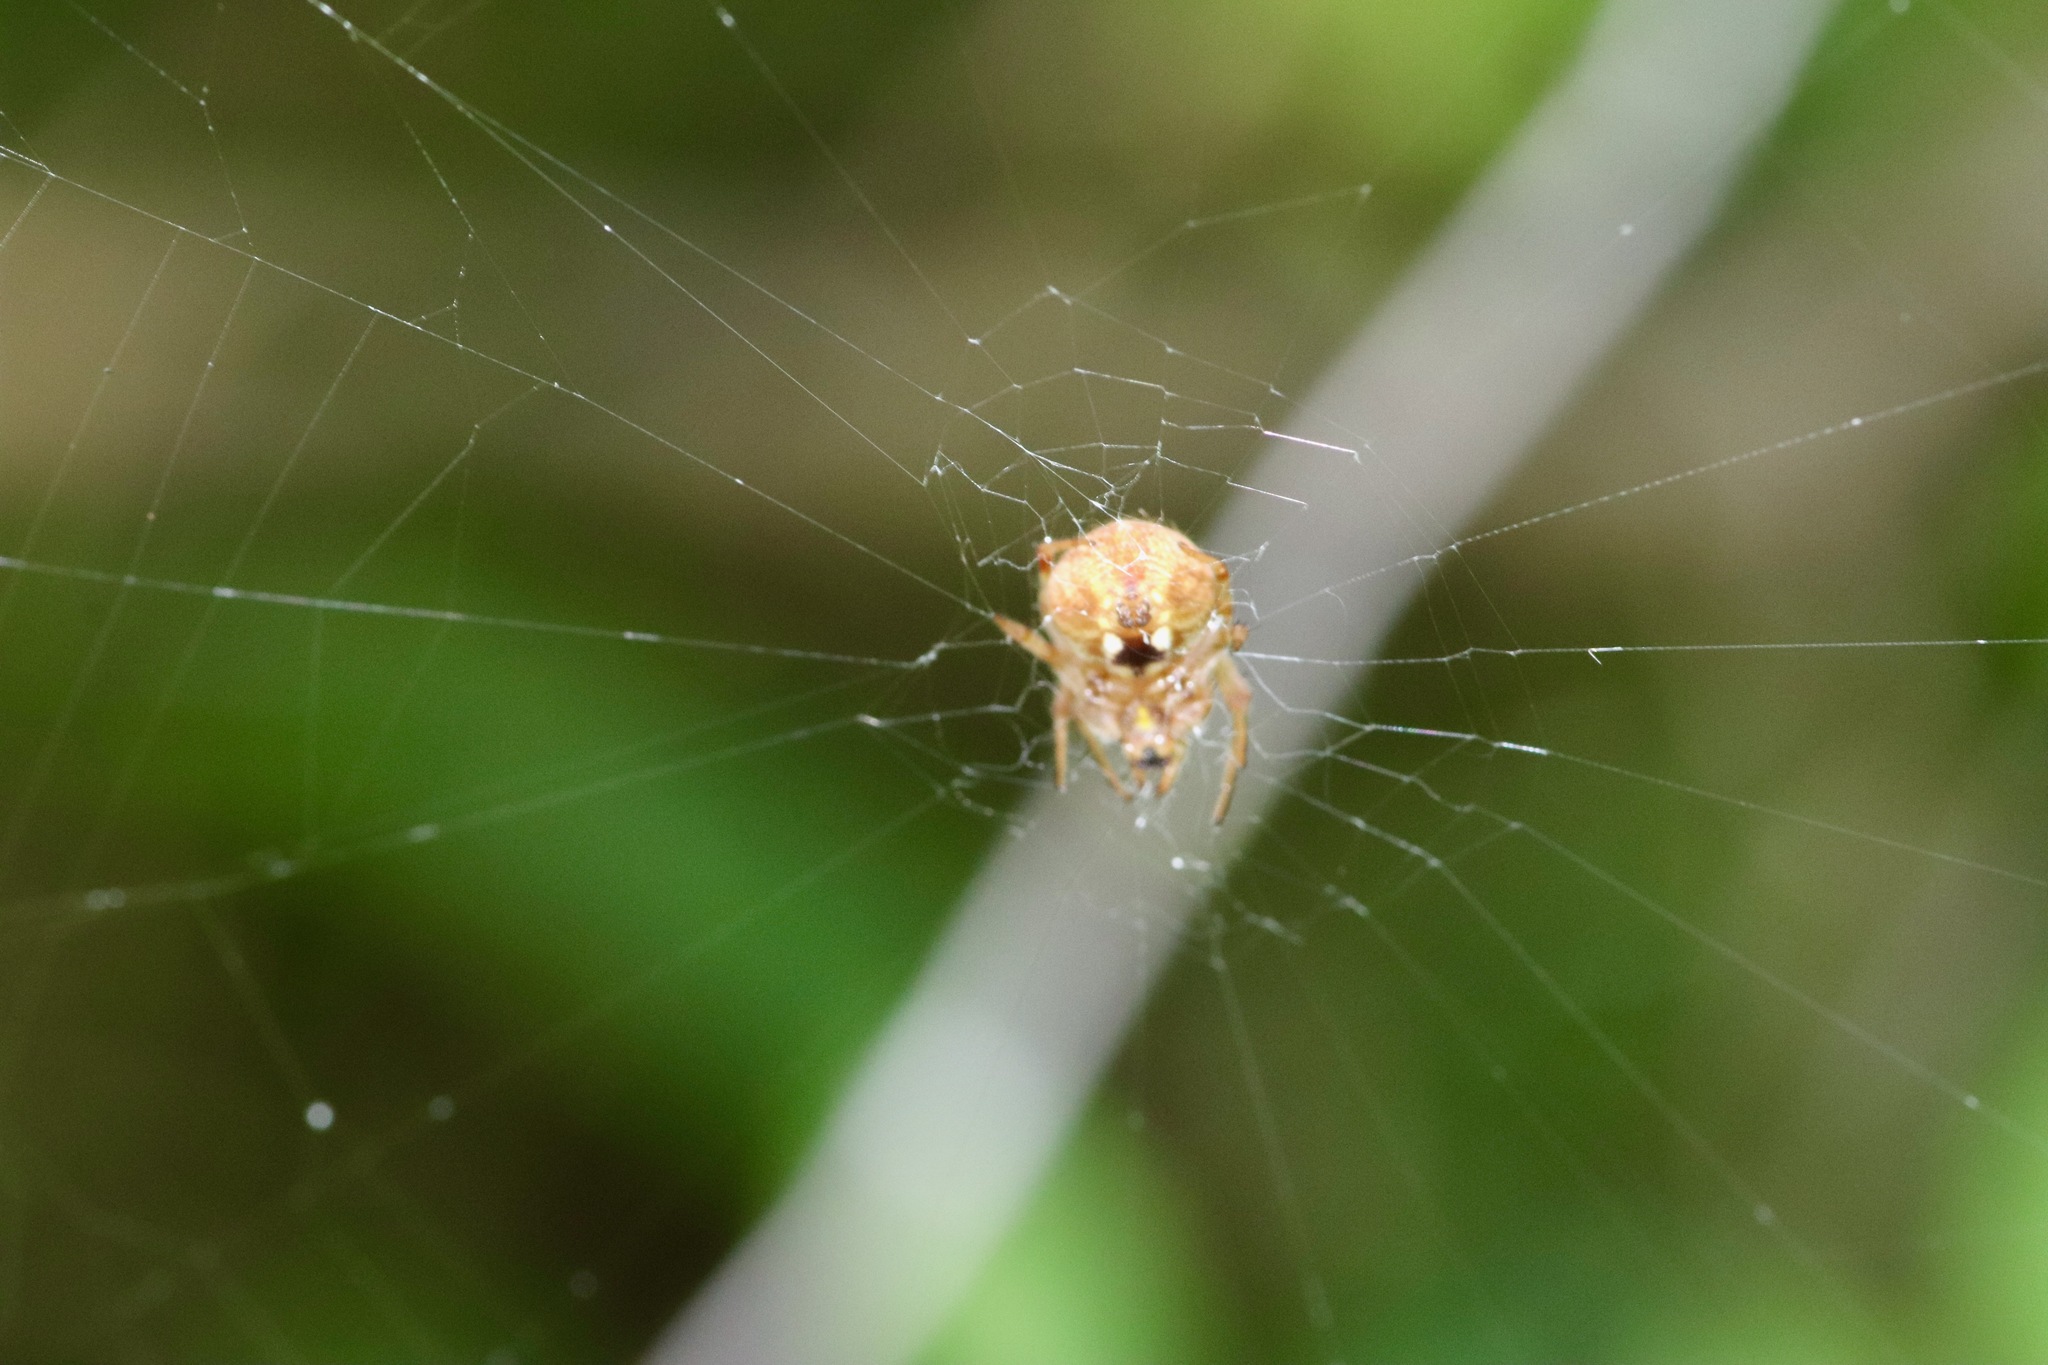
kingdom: Animalia
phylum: Arthropoda
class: Arachnida
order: Araneae
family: Araneidae
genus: Neoscona
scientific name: Neoscona arabesca
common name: Orb weavers
